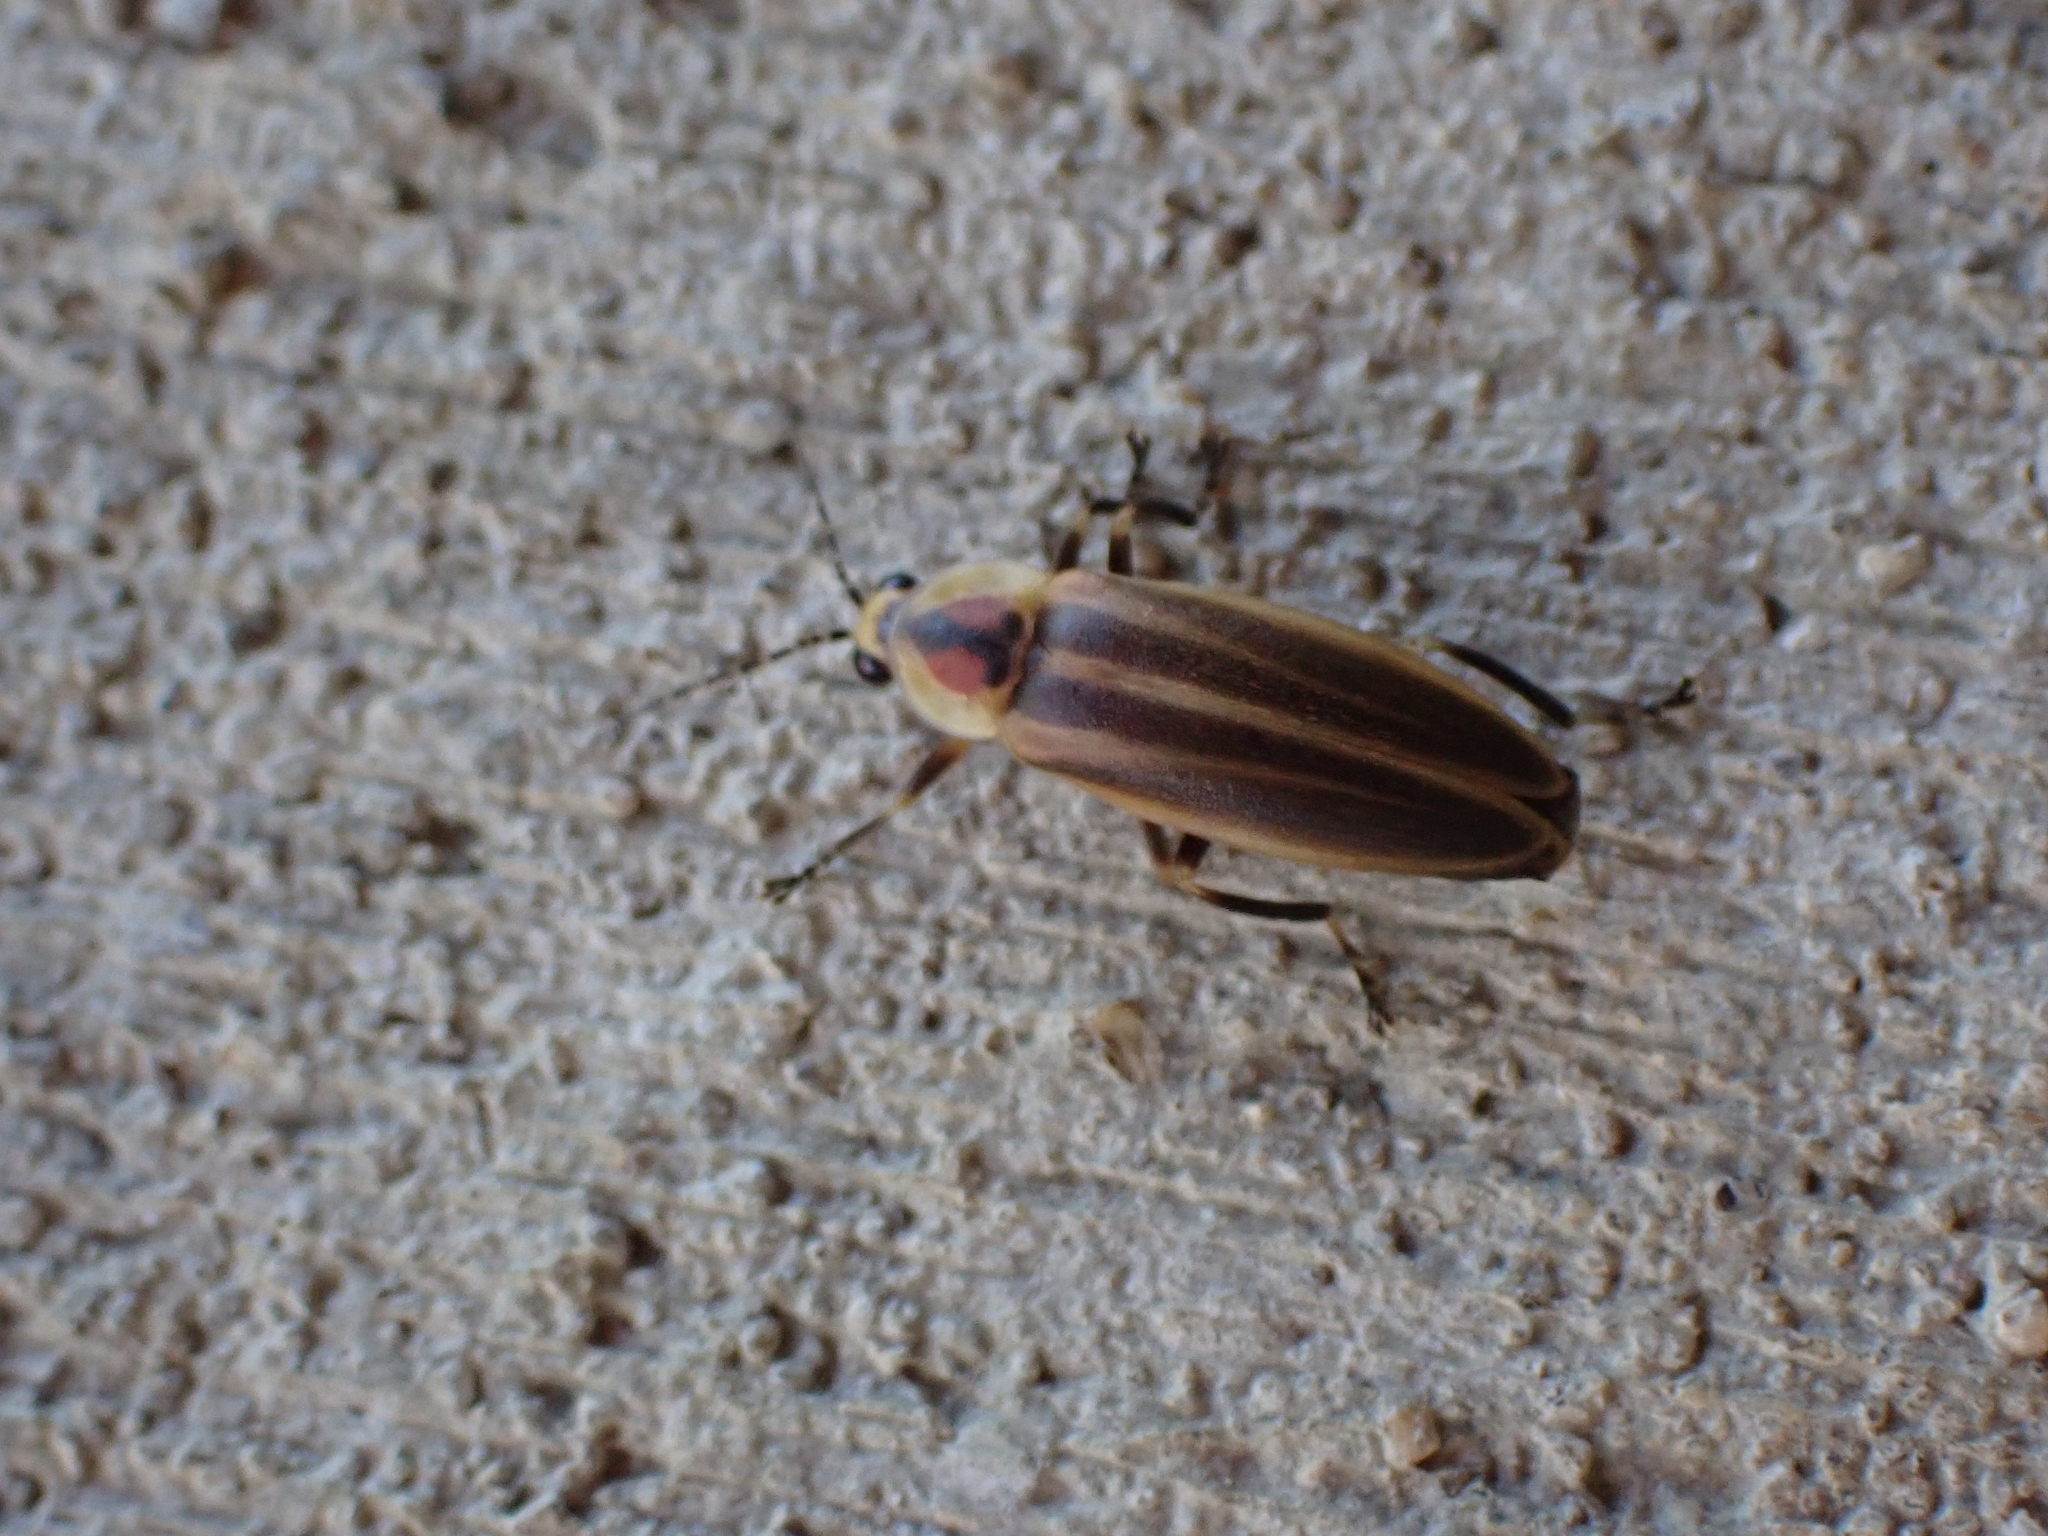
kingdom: Animalia
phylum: Arthropoda
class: Insecta
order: Coleoptera
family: Lampyridae
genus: Photuris
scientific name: Photuris
